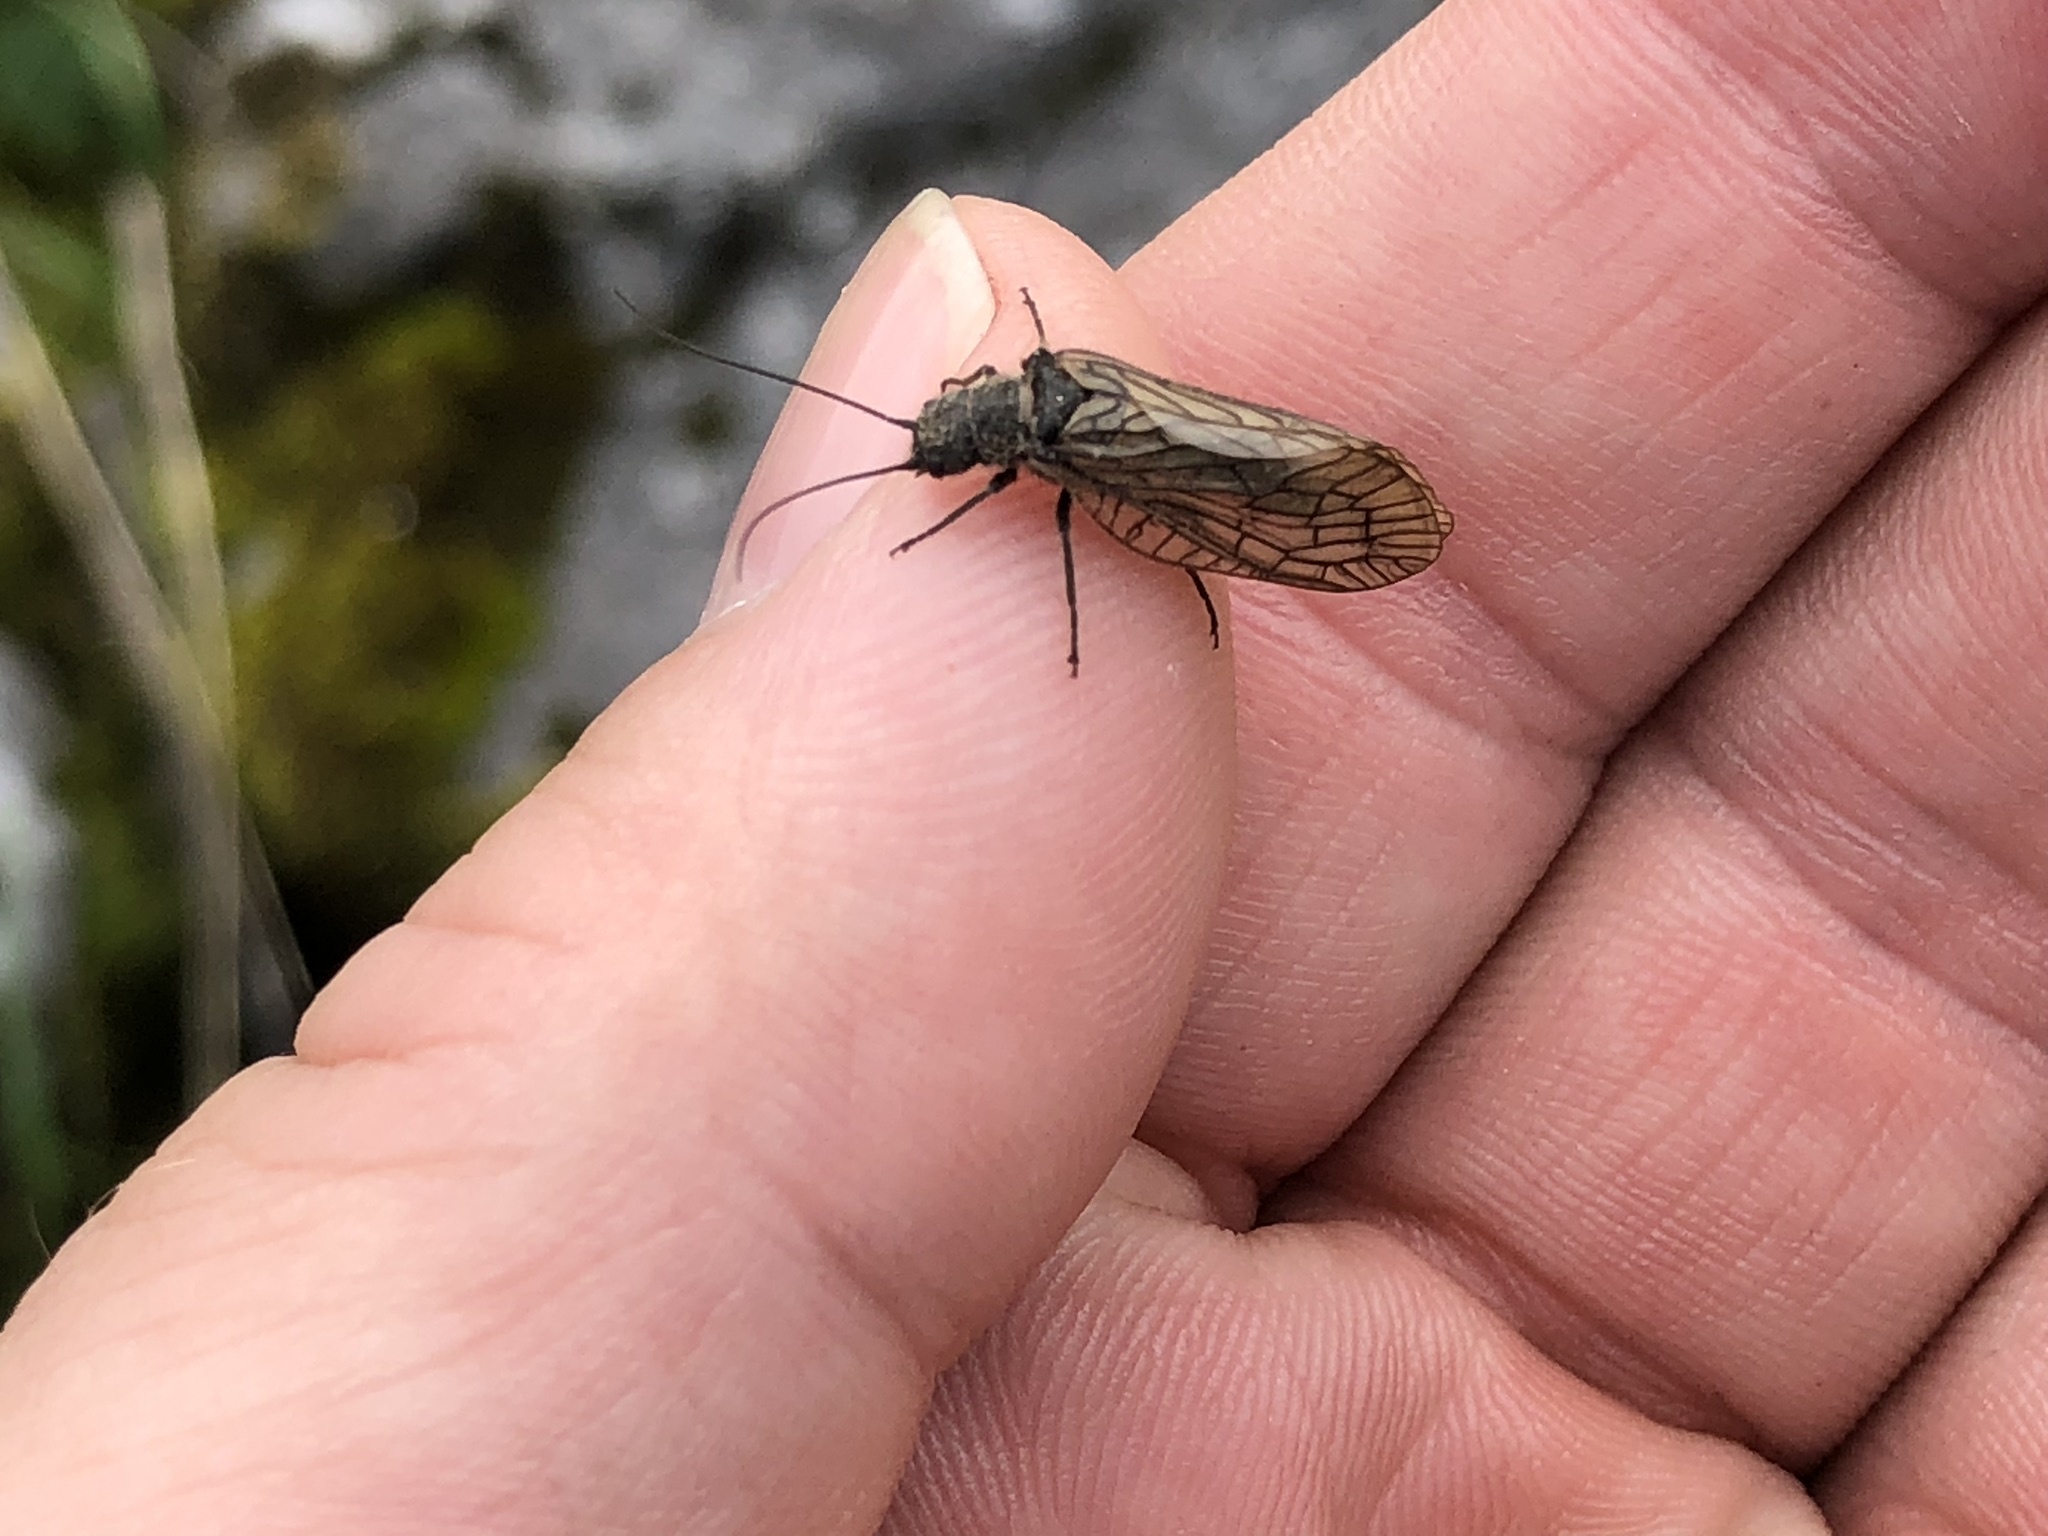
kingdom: Animalia
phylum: Arthropoda
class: Insecta
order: Megaloptera
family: Sialidae
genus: Sialis
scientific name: Sialis
